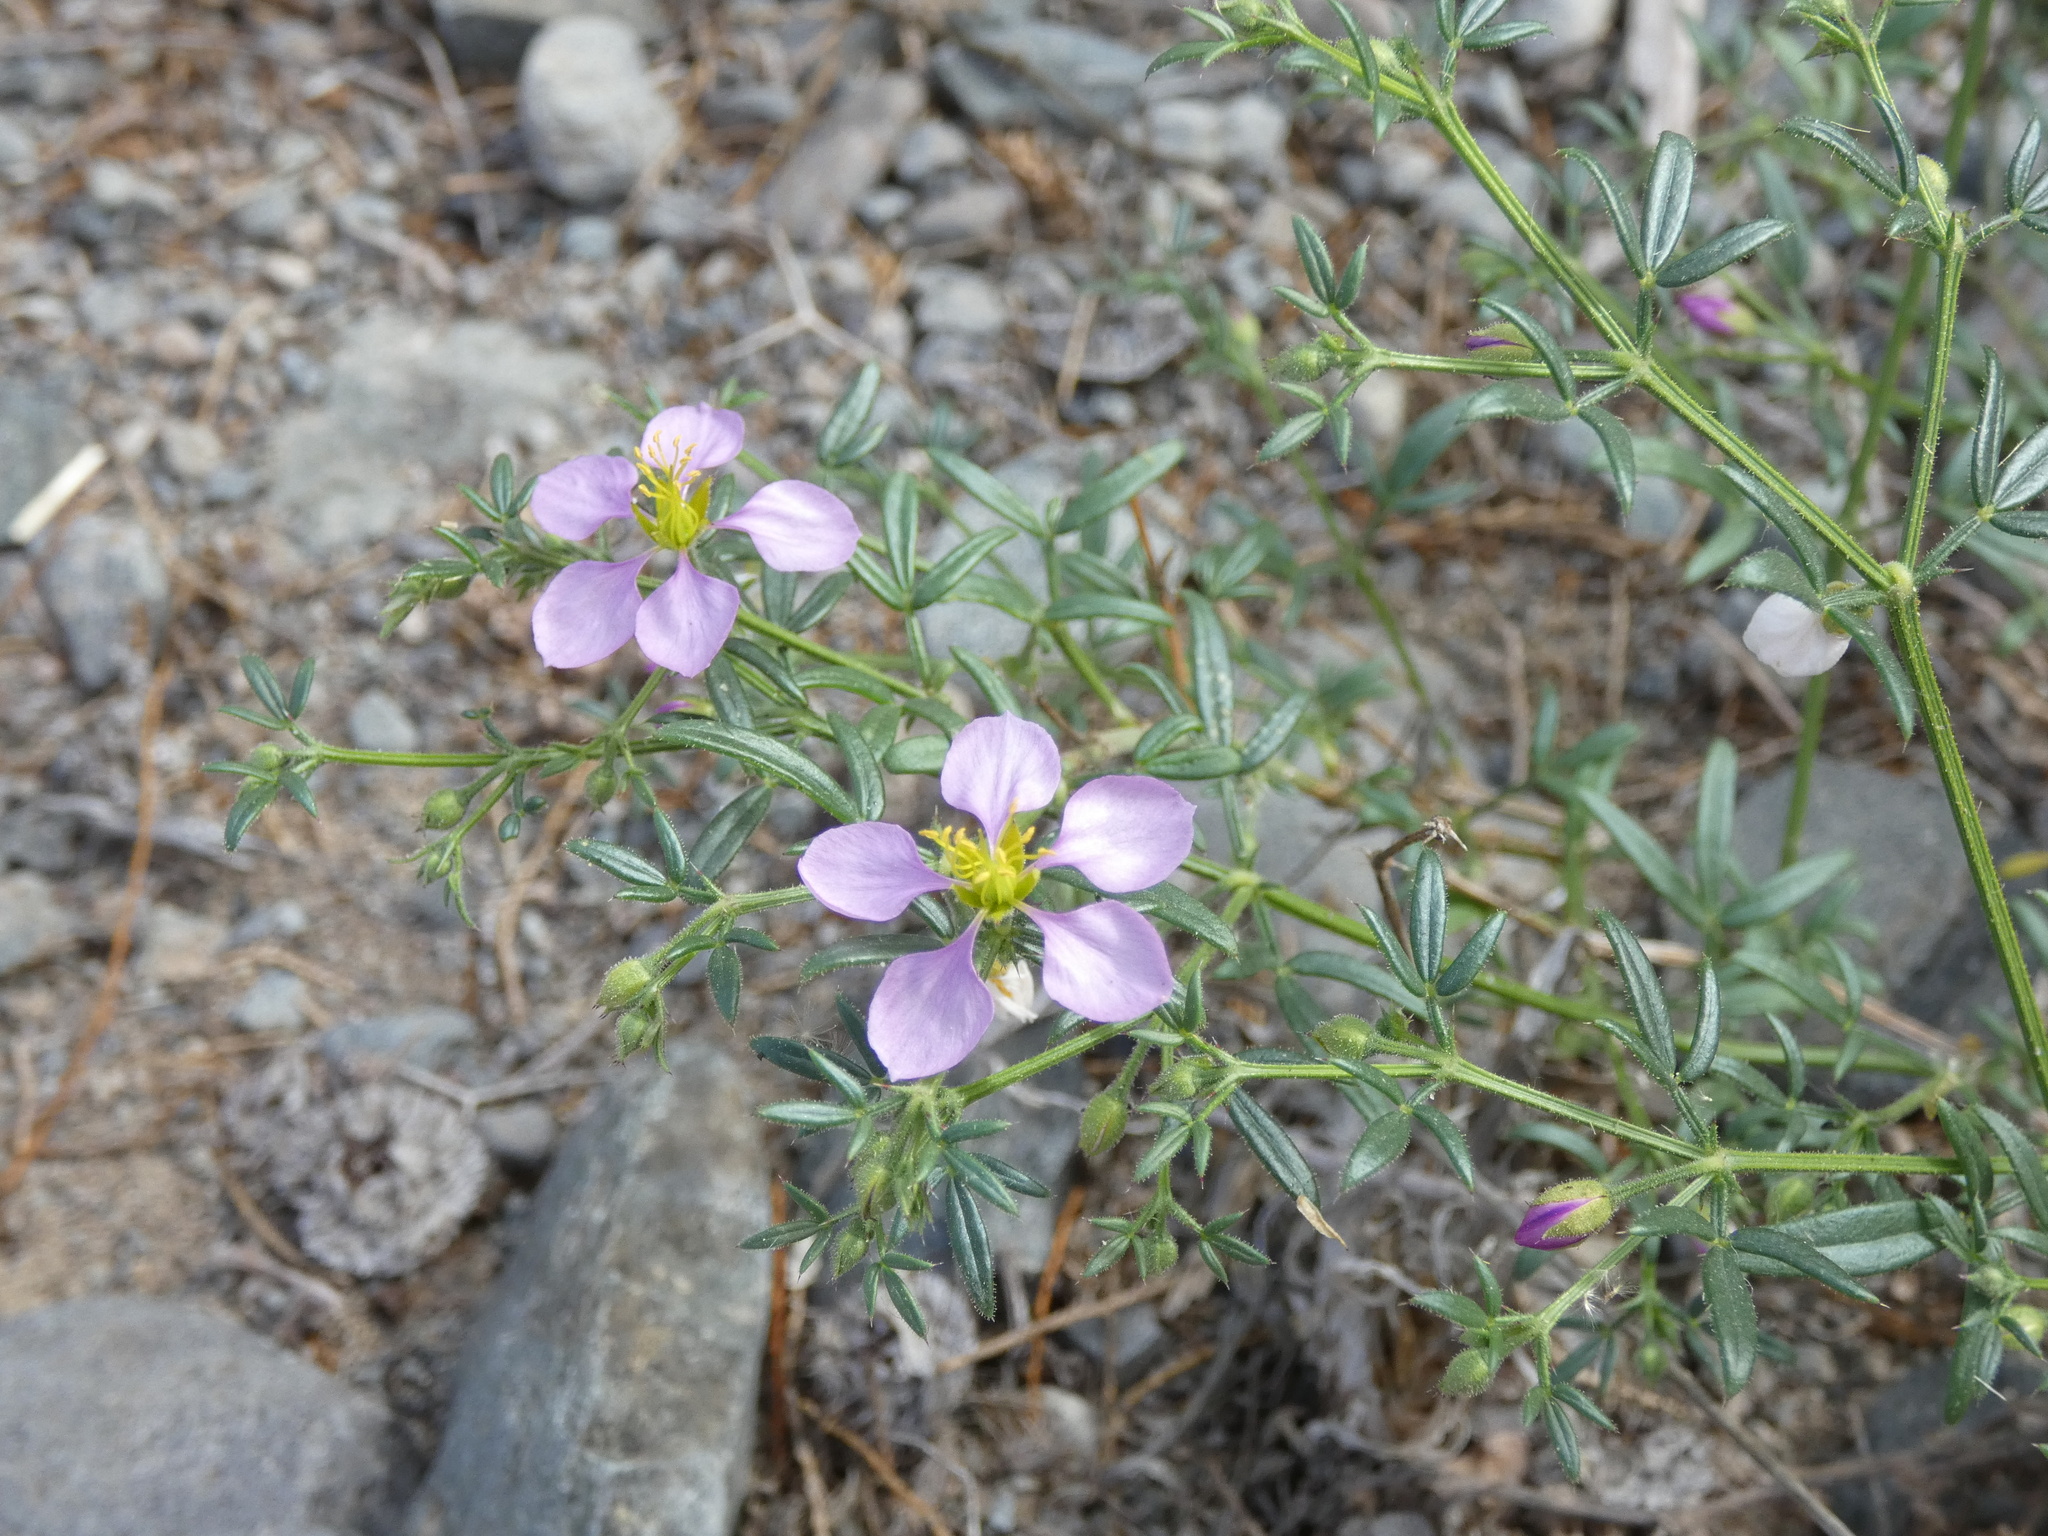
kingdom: Plantae
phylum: Tracheophyta
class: Magnoliopsida
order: Zygophyllales
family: Zygophyllaceae
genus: Fagonia
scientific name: Fagonia cretica
